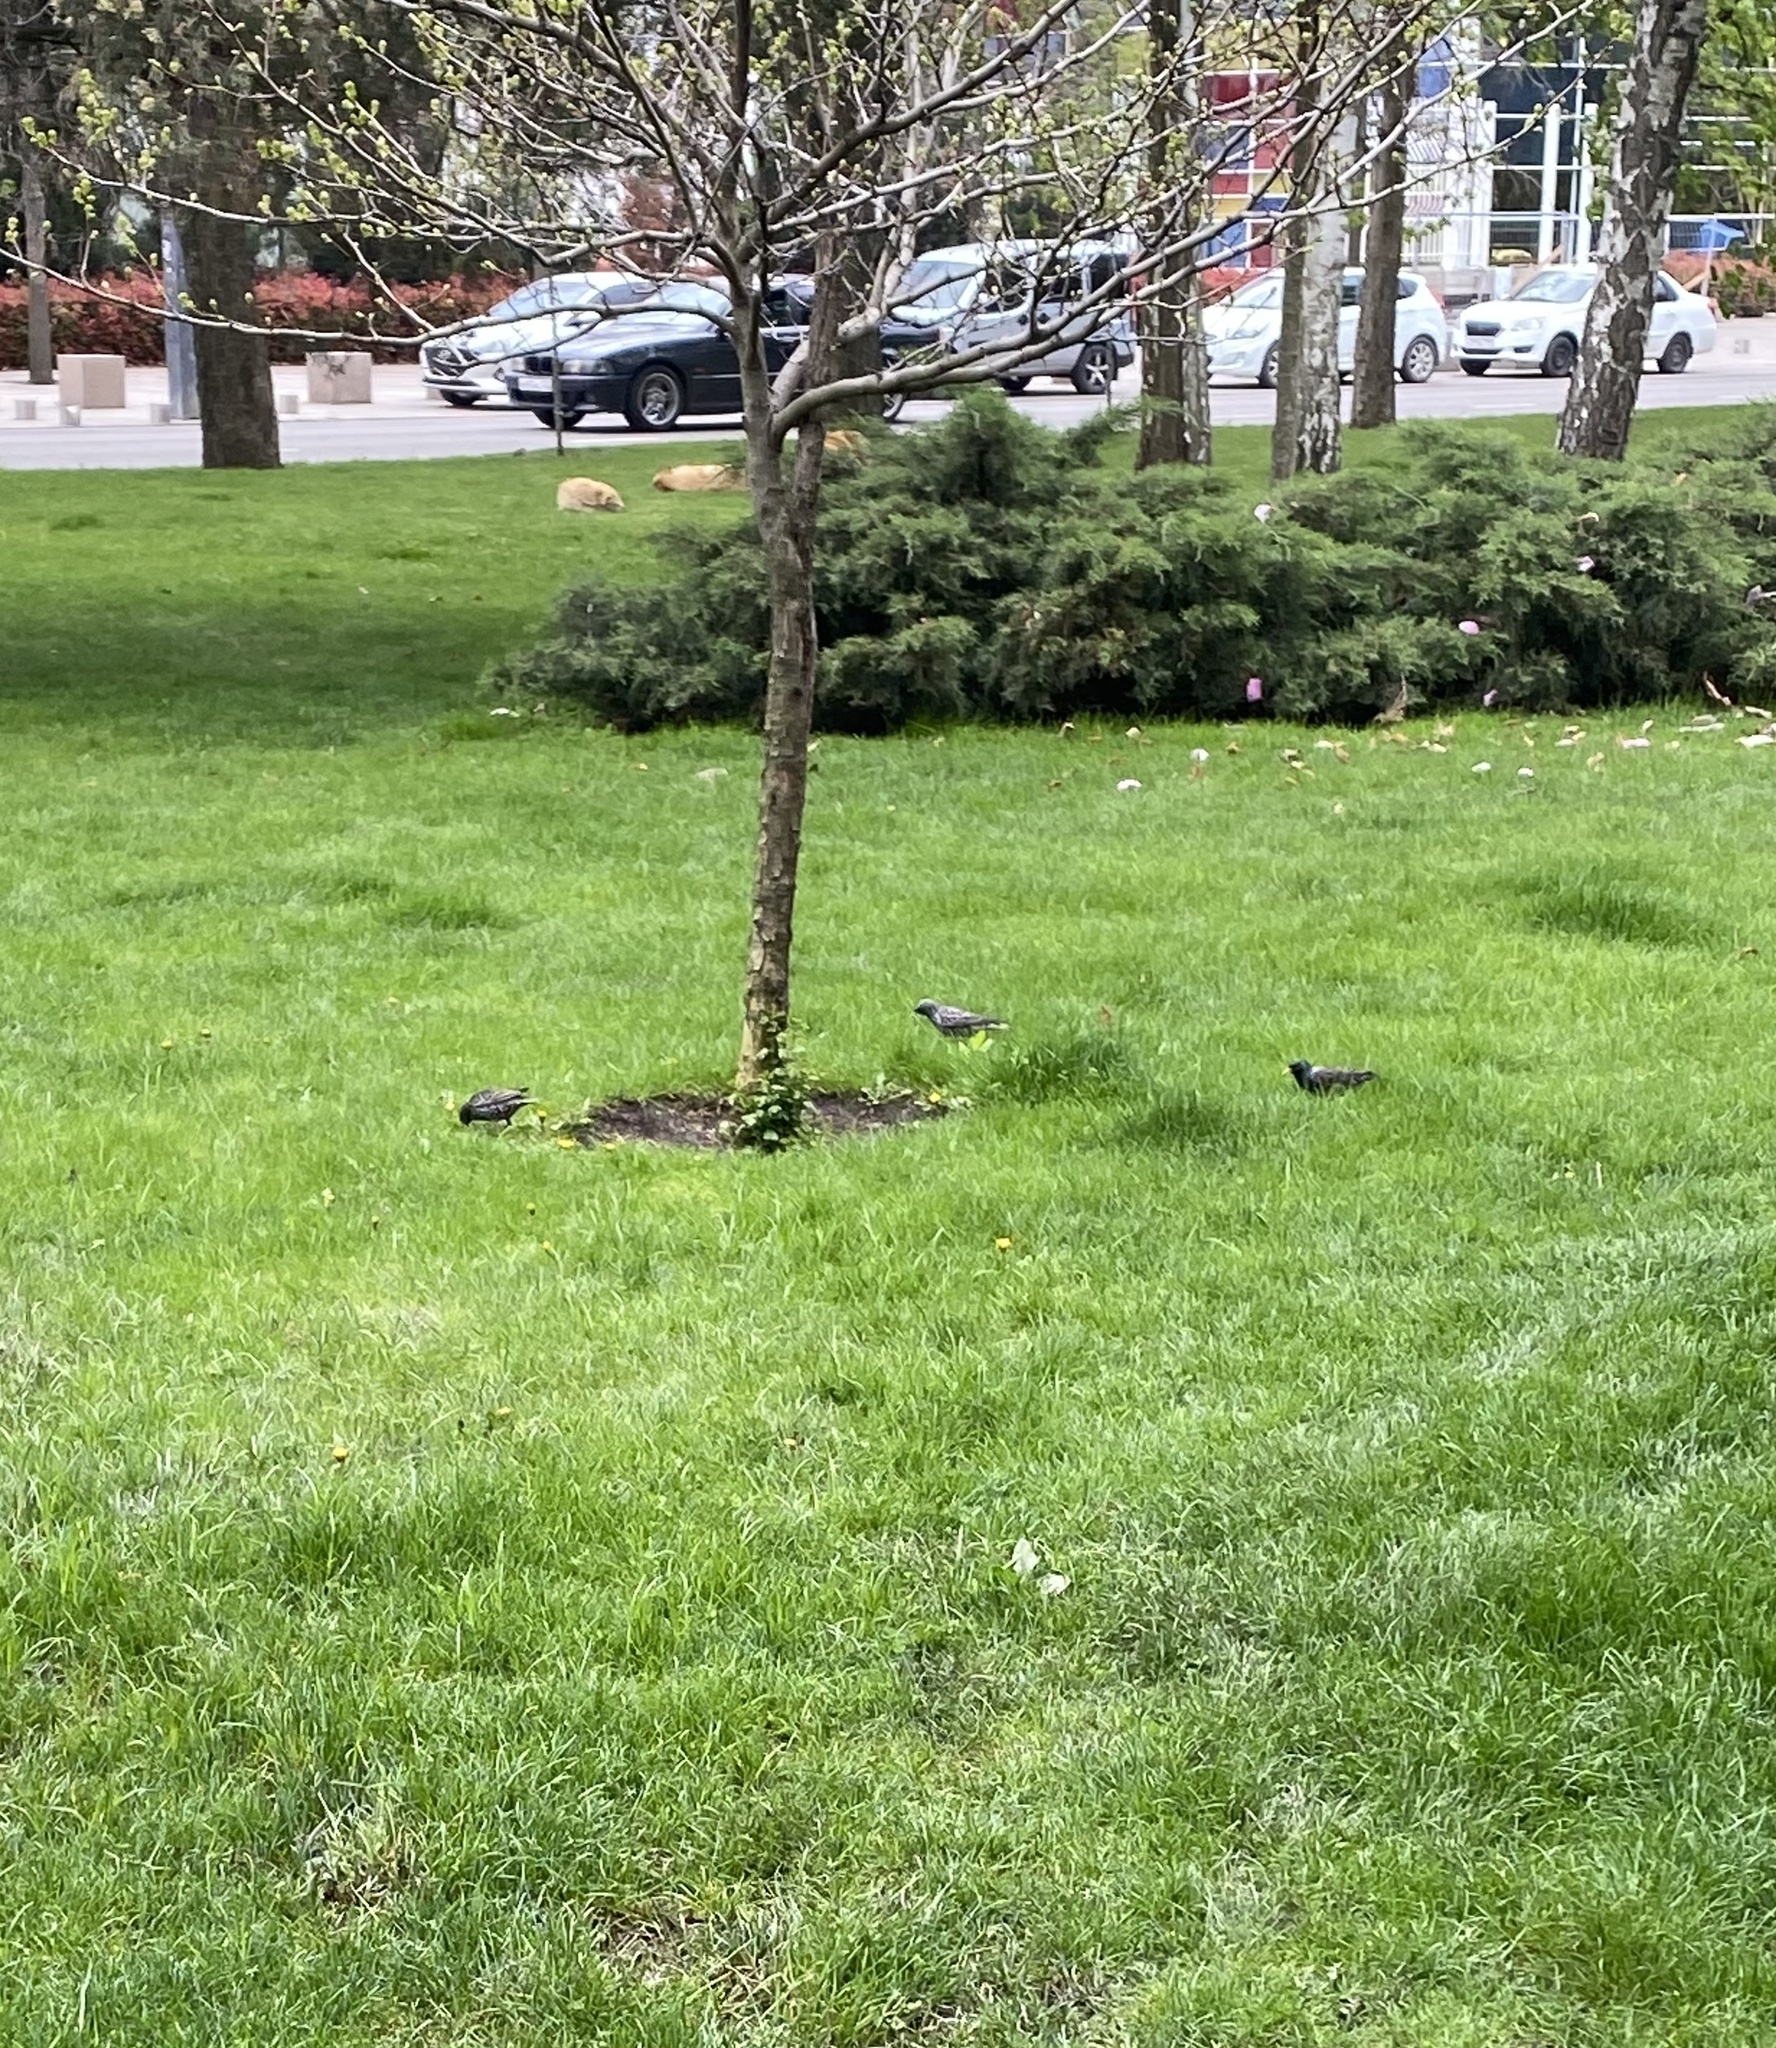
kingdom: Animalia
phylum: Chordata
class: Aves
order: Passeriformes
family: Sturnidae
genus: Sturnus
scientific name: Sturnus vulgaris
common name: Common starling
